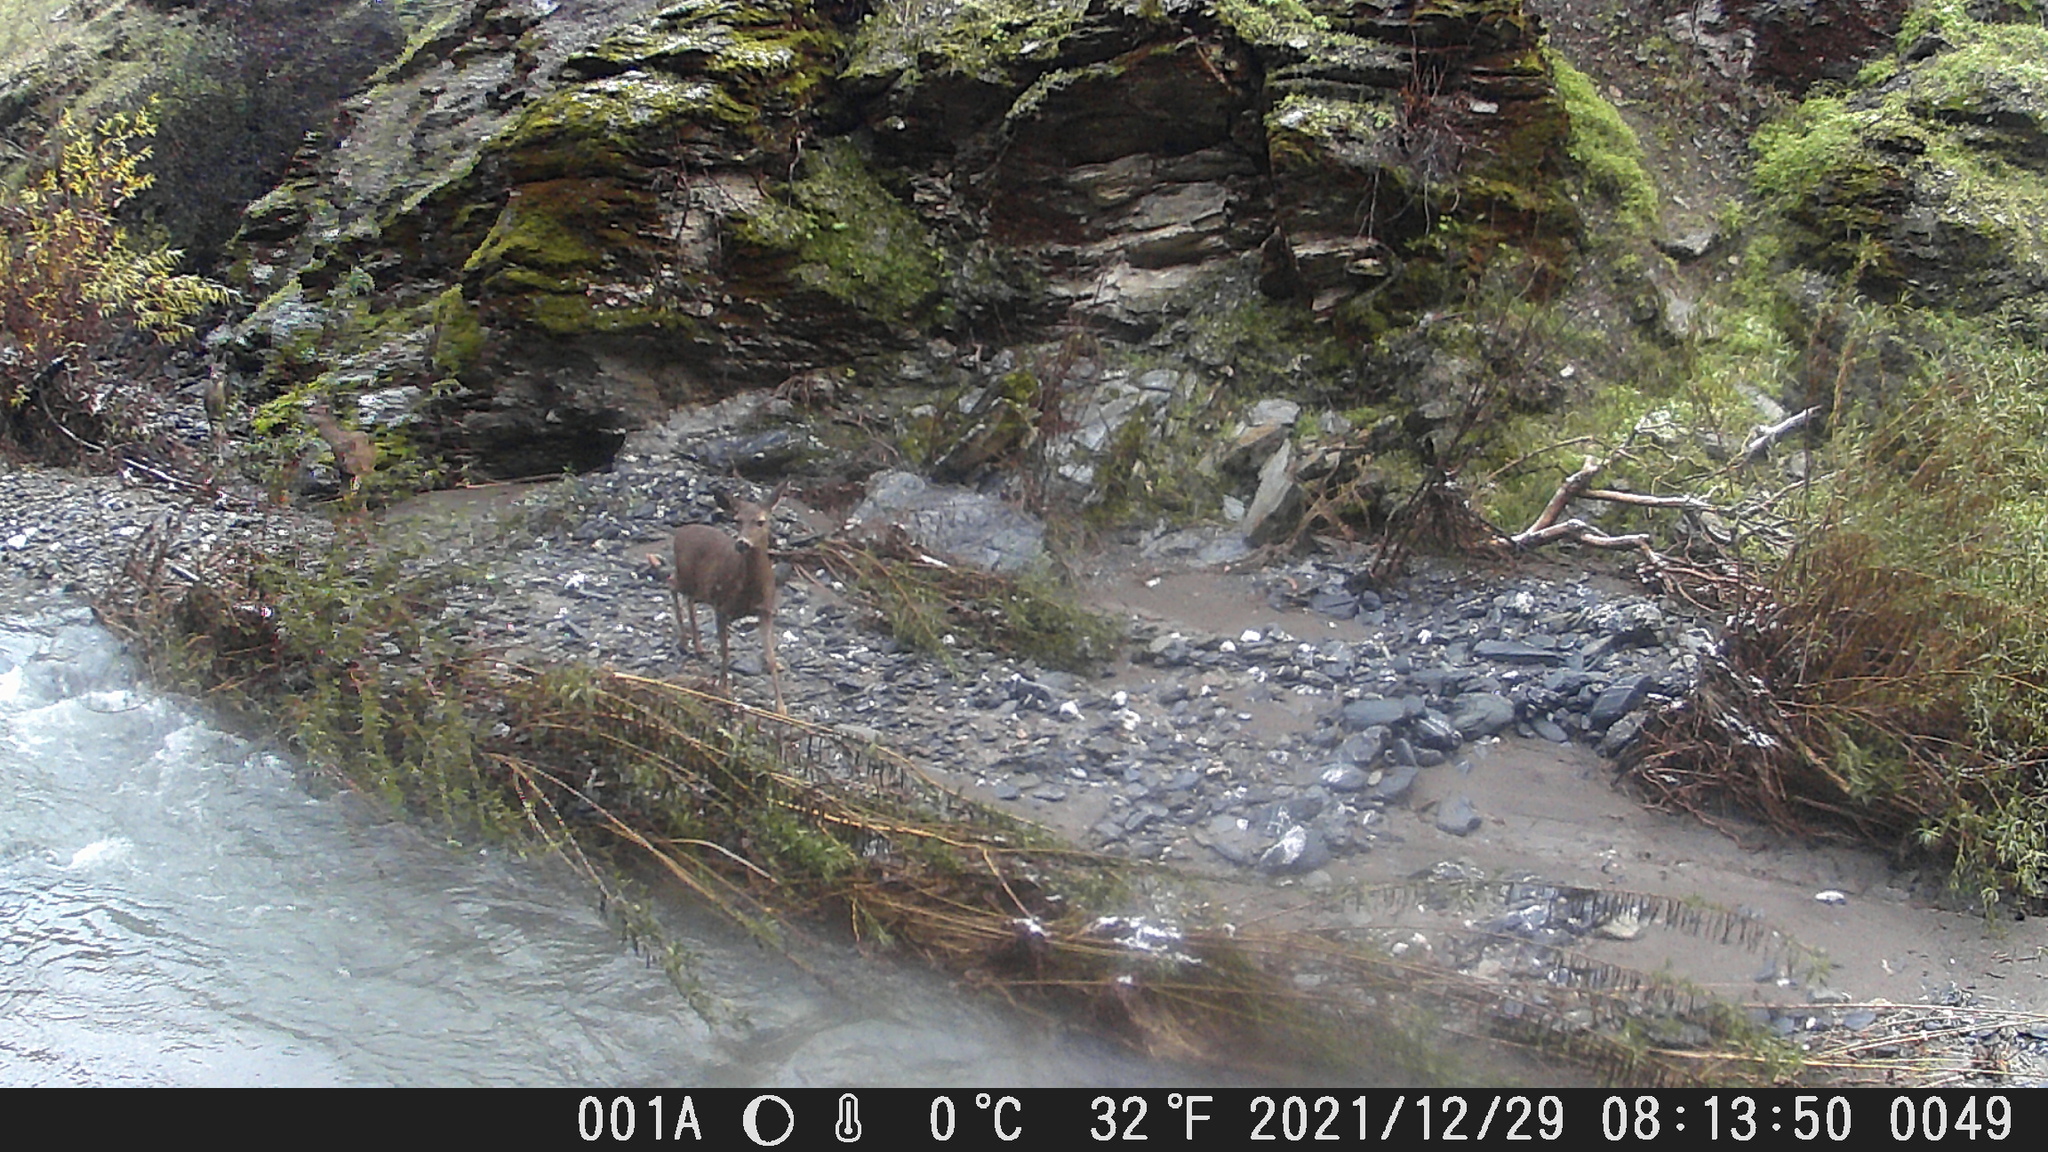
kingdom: Animalia
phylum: Chordata
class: Mammalia
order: Artiodactyla
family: Cervidae
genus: Odocoileus
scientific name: Odocoileus hemionus
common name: Mule deer
